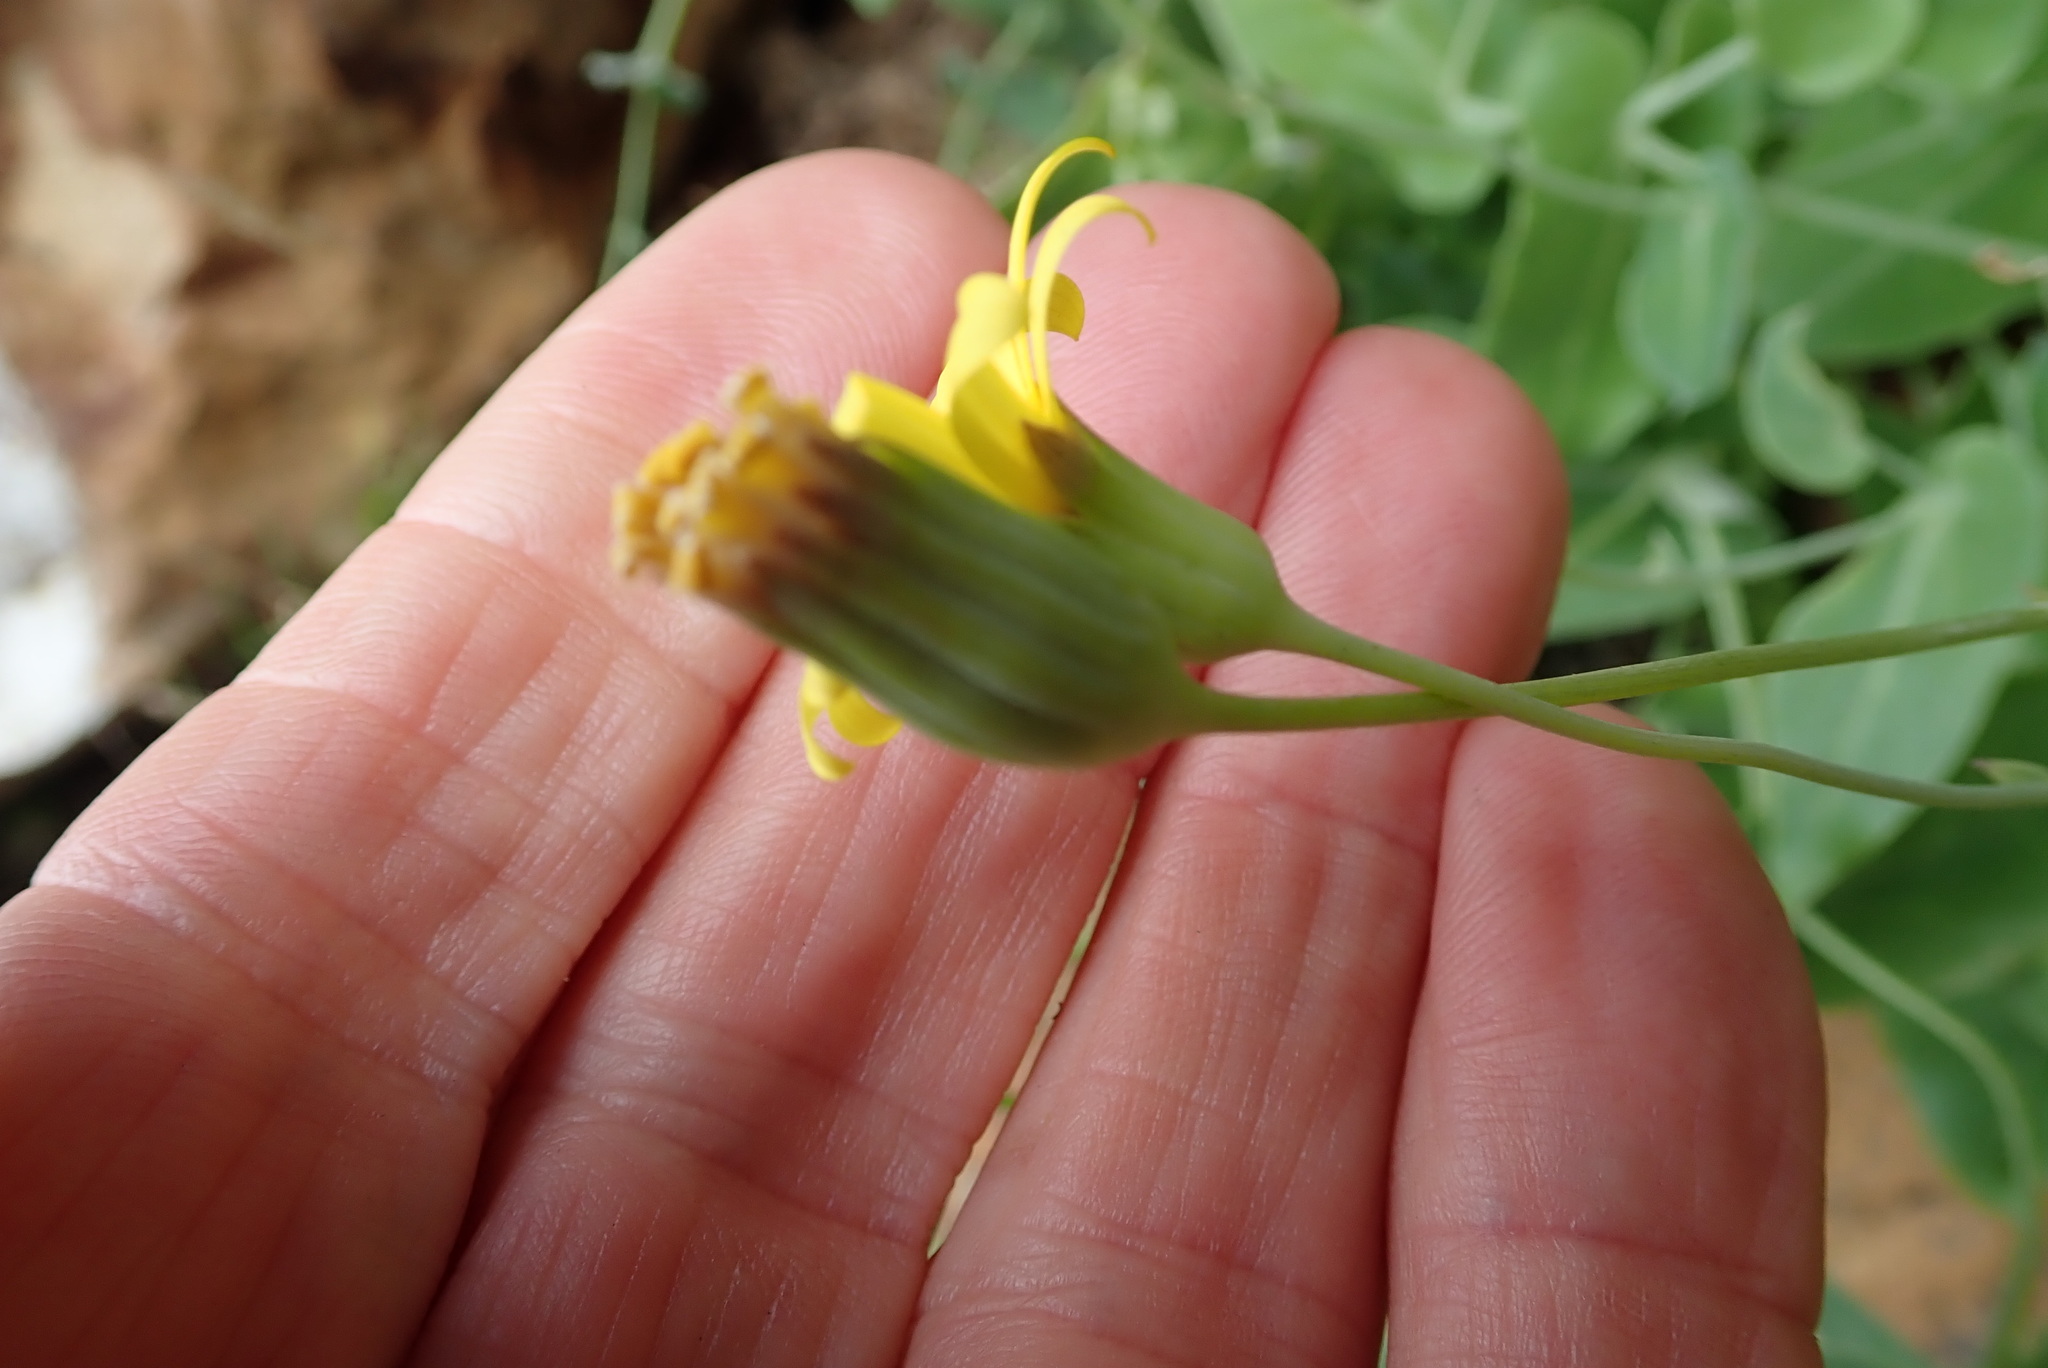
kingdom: Plantae
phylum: Tracheophyta
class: Magnoliopsida
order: Asterales
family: Asteraceae
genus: Othonna
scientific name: Othonna perfoliata
